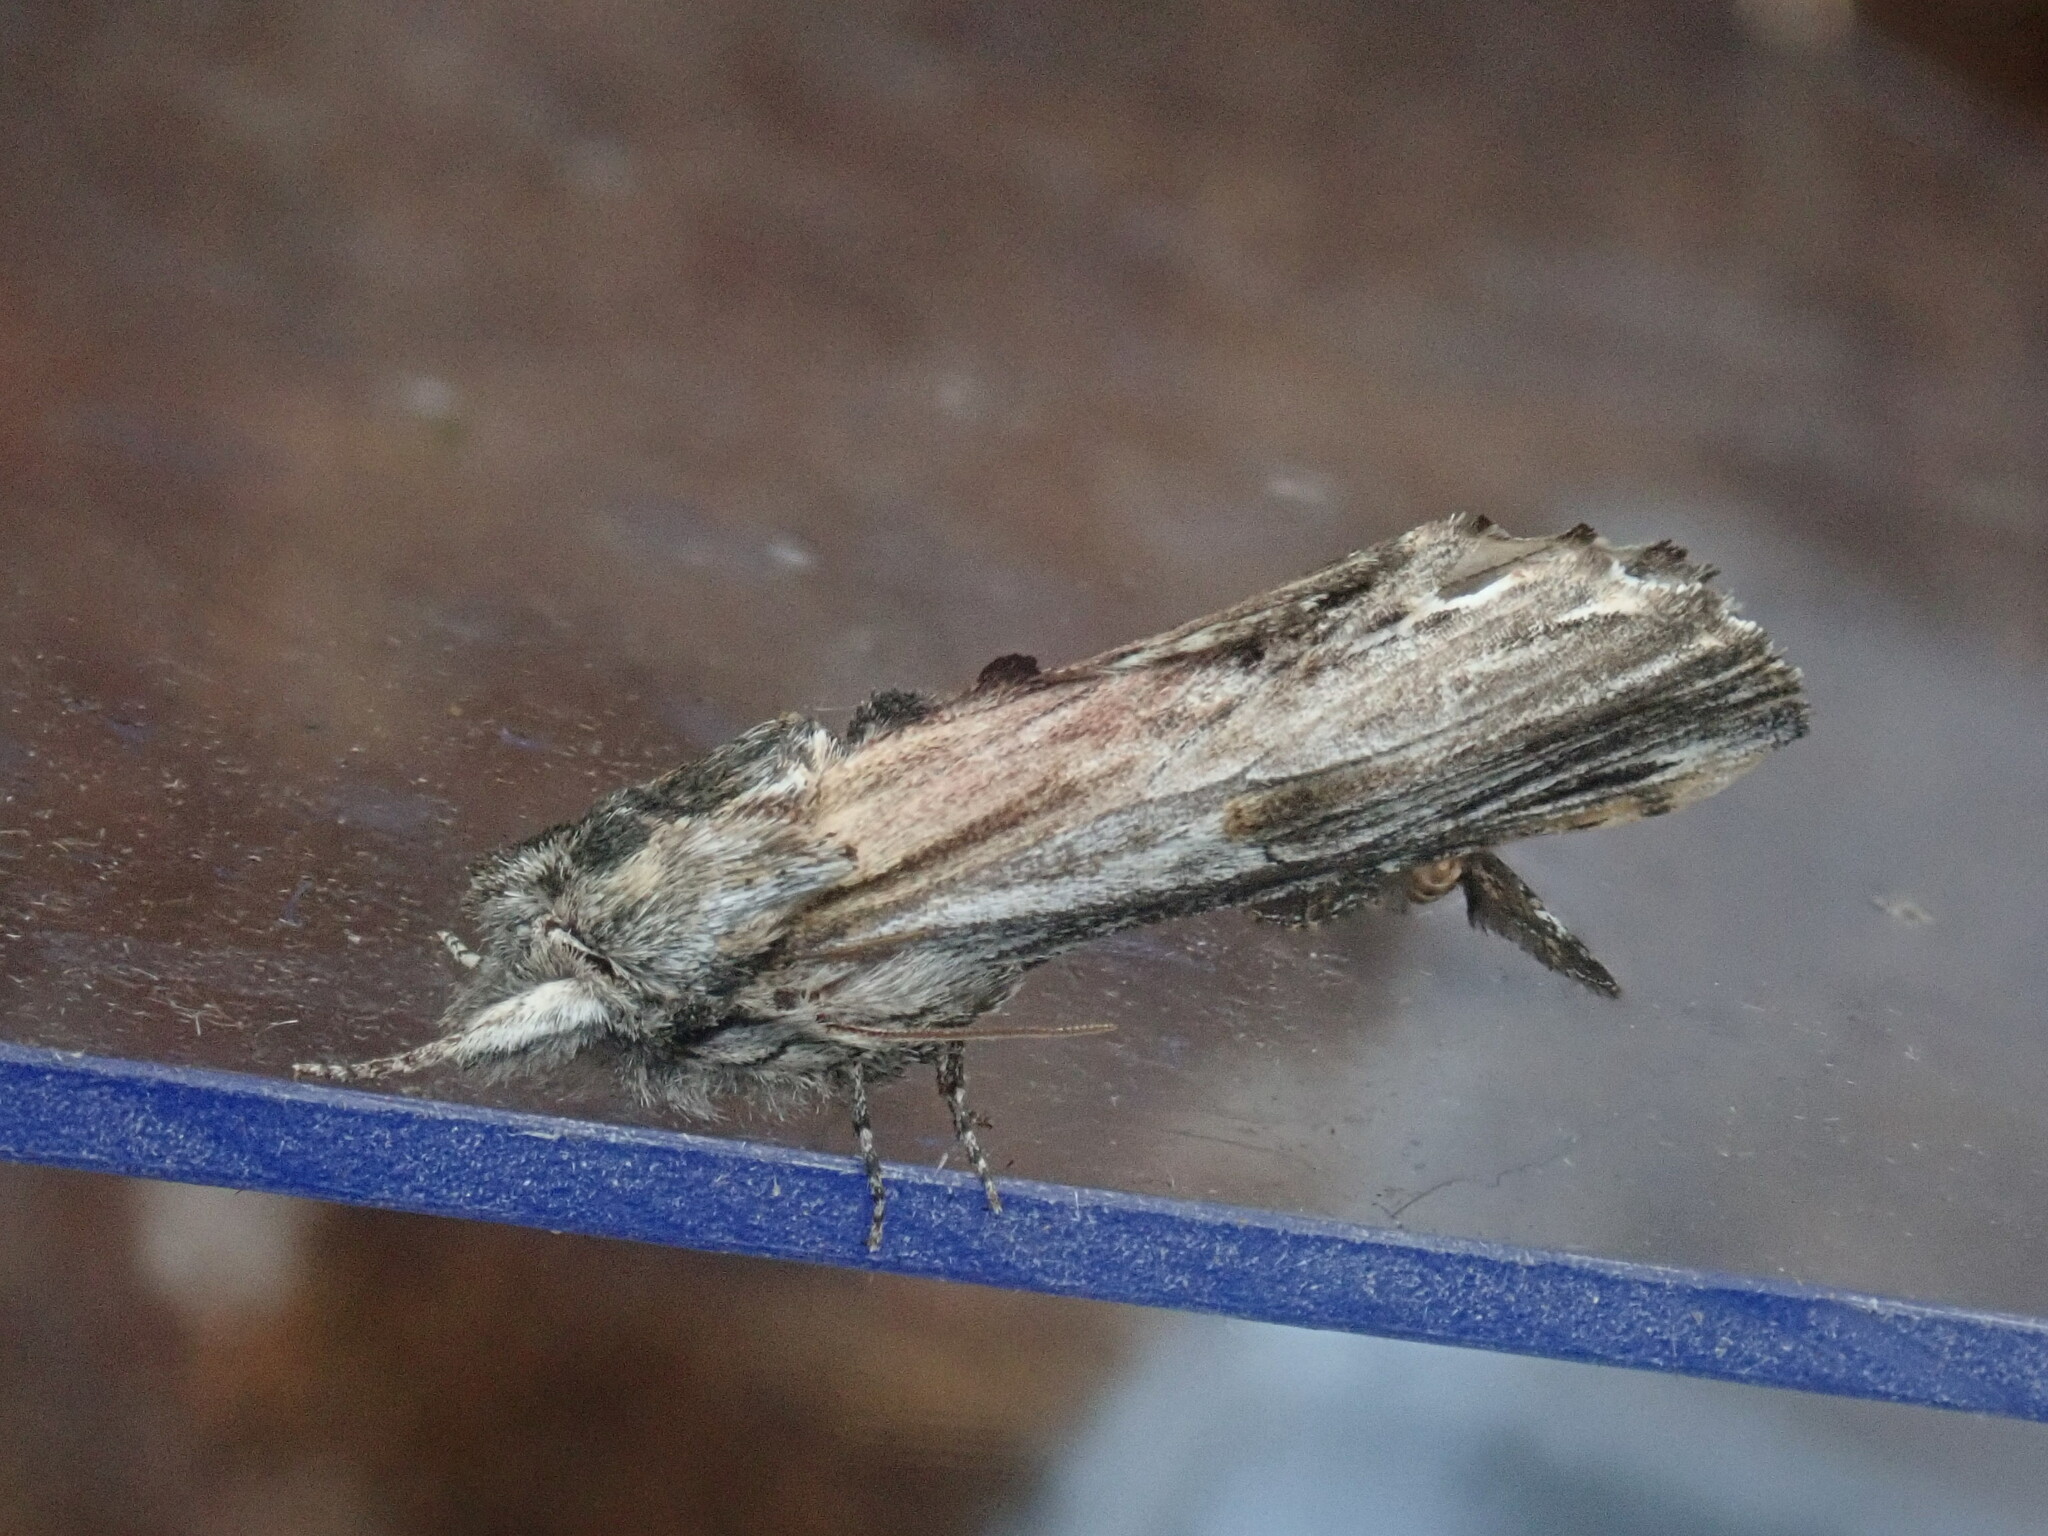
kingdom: Animalia
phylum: Arthropoda
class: Insecta
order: Lepidoptera
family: Notodontidae
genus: Oligocentria
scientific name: Oligocentria Ianassa lignicolor
